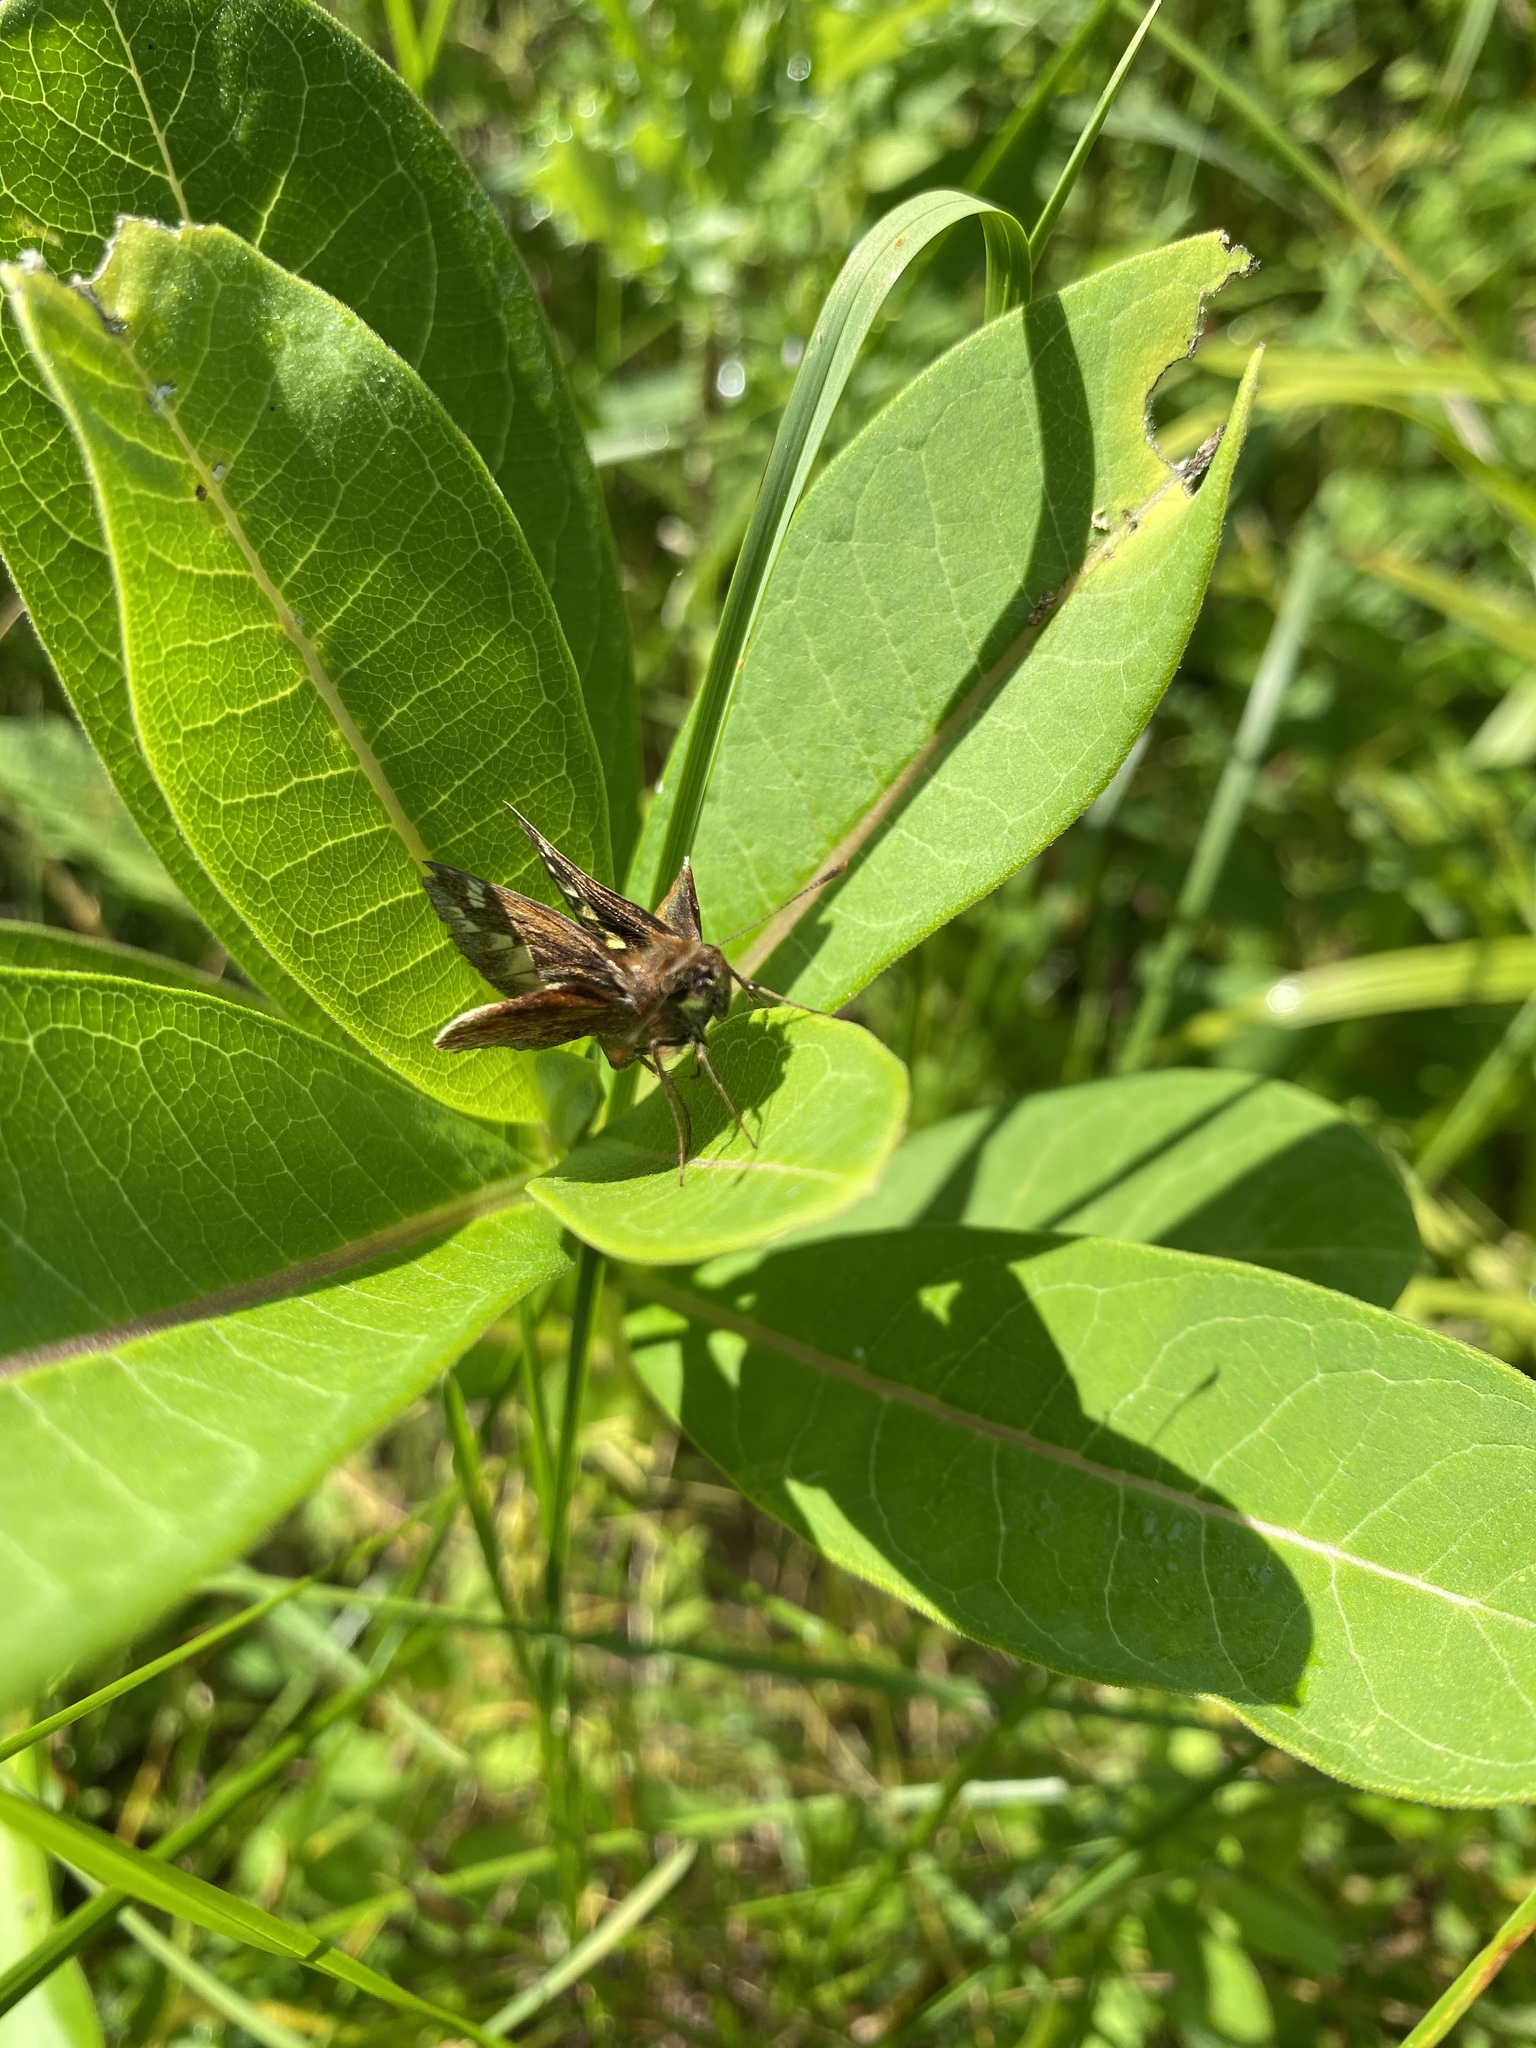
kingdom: Animalia
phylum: Arthropoda
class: Insecta
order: Lepidoptera
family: Hesperiidae
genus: Lon
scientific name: Lon zabulon
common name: Zabulon skipper
